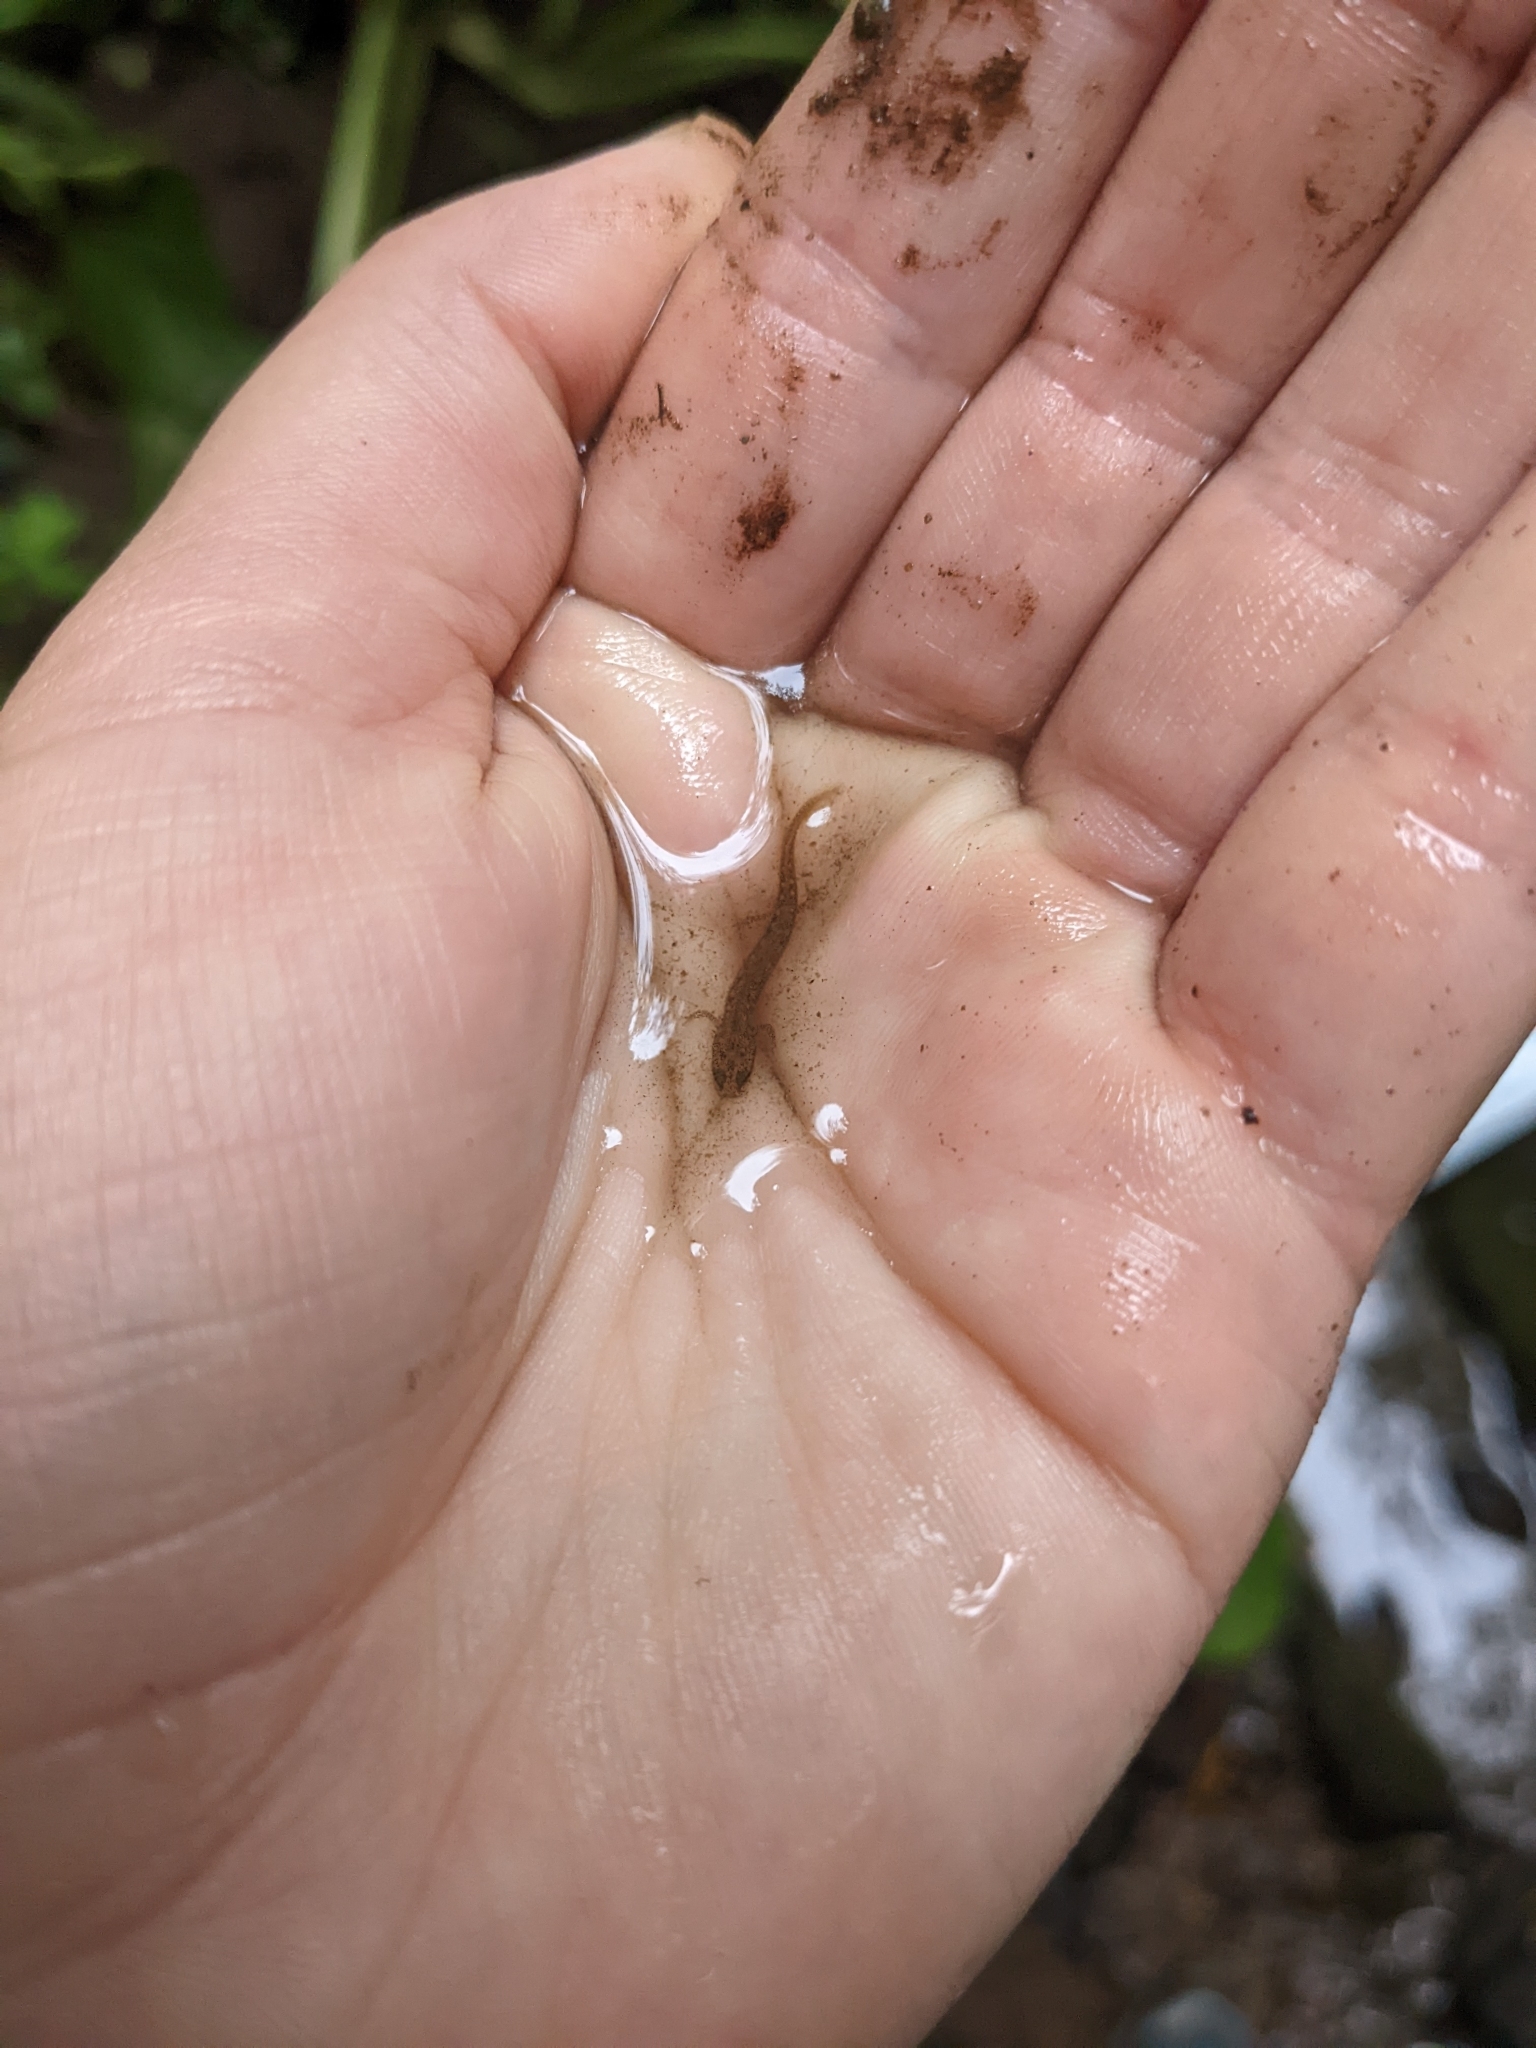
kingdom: Animalia
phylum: Chordata
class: Amphibia
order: Caudata
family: Plethodontidae
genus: Eurycea
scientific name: Eurycea bislineata
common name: Northern two-lined salamander
